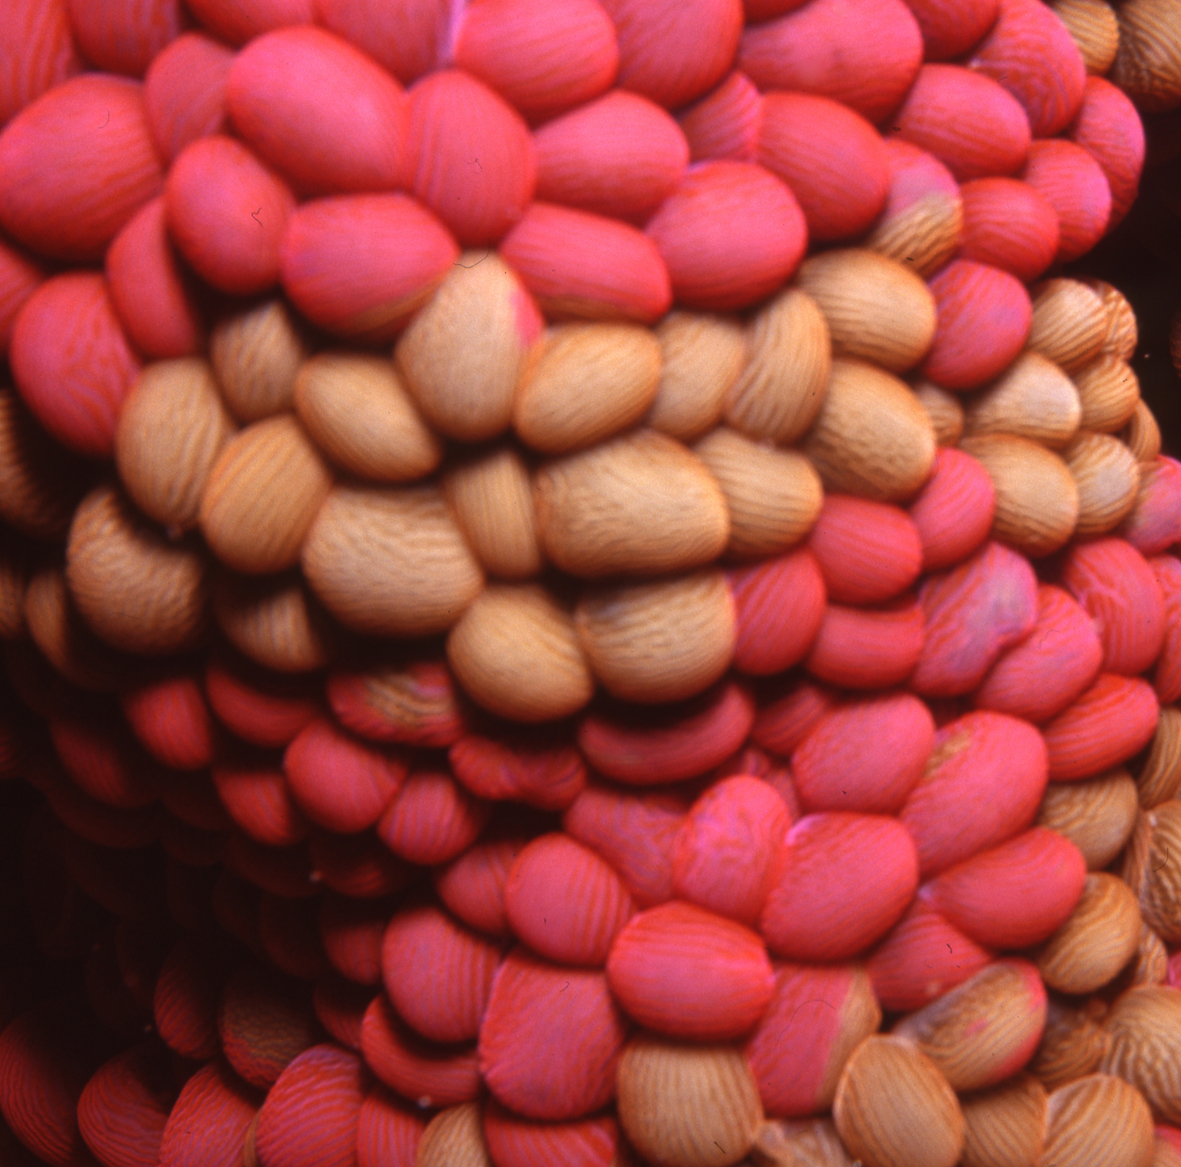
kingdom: Animalia
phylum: Cnidaria
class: Anthozoa
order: Actiniaria
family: Actiniidae
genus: Phlyctenactis
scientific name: Phlyctenactis tuberculosa
